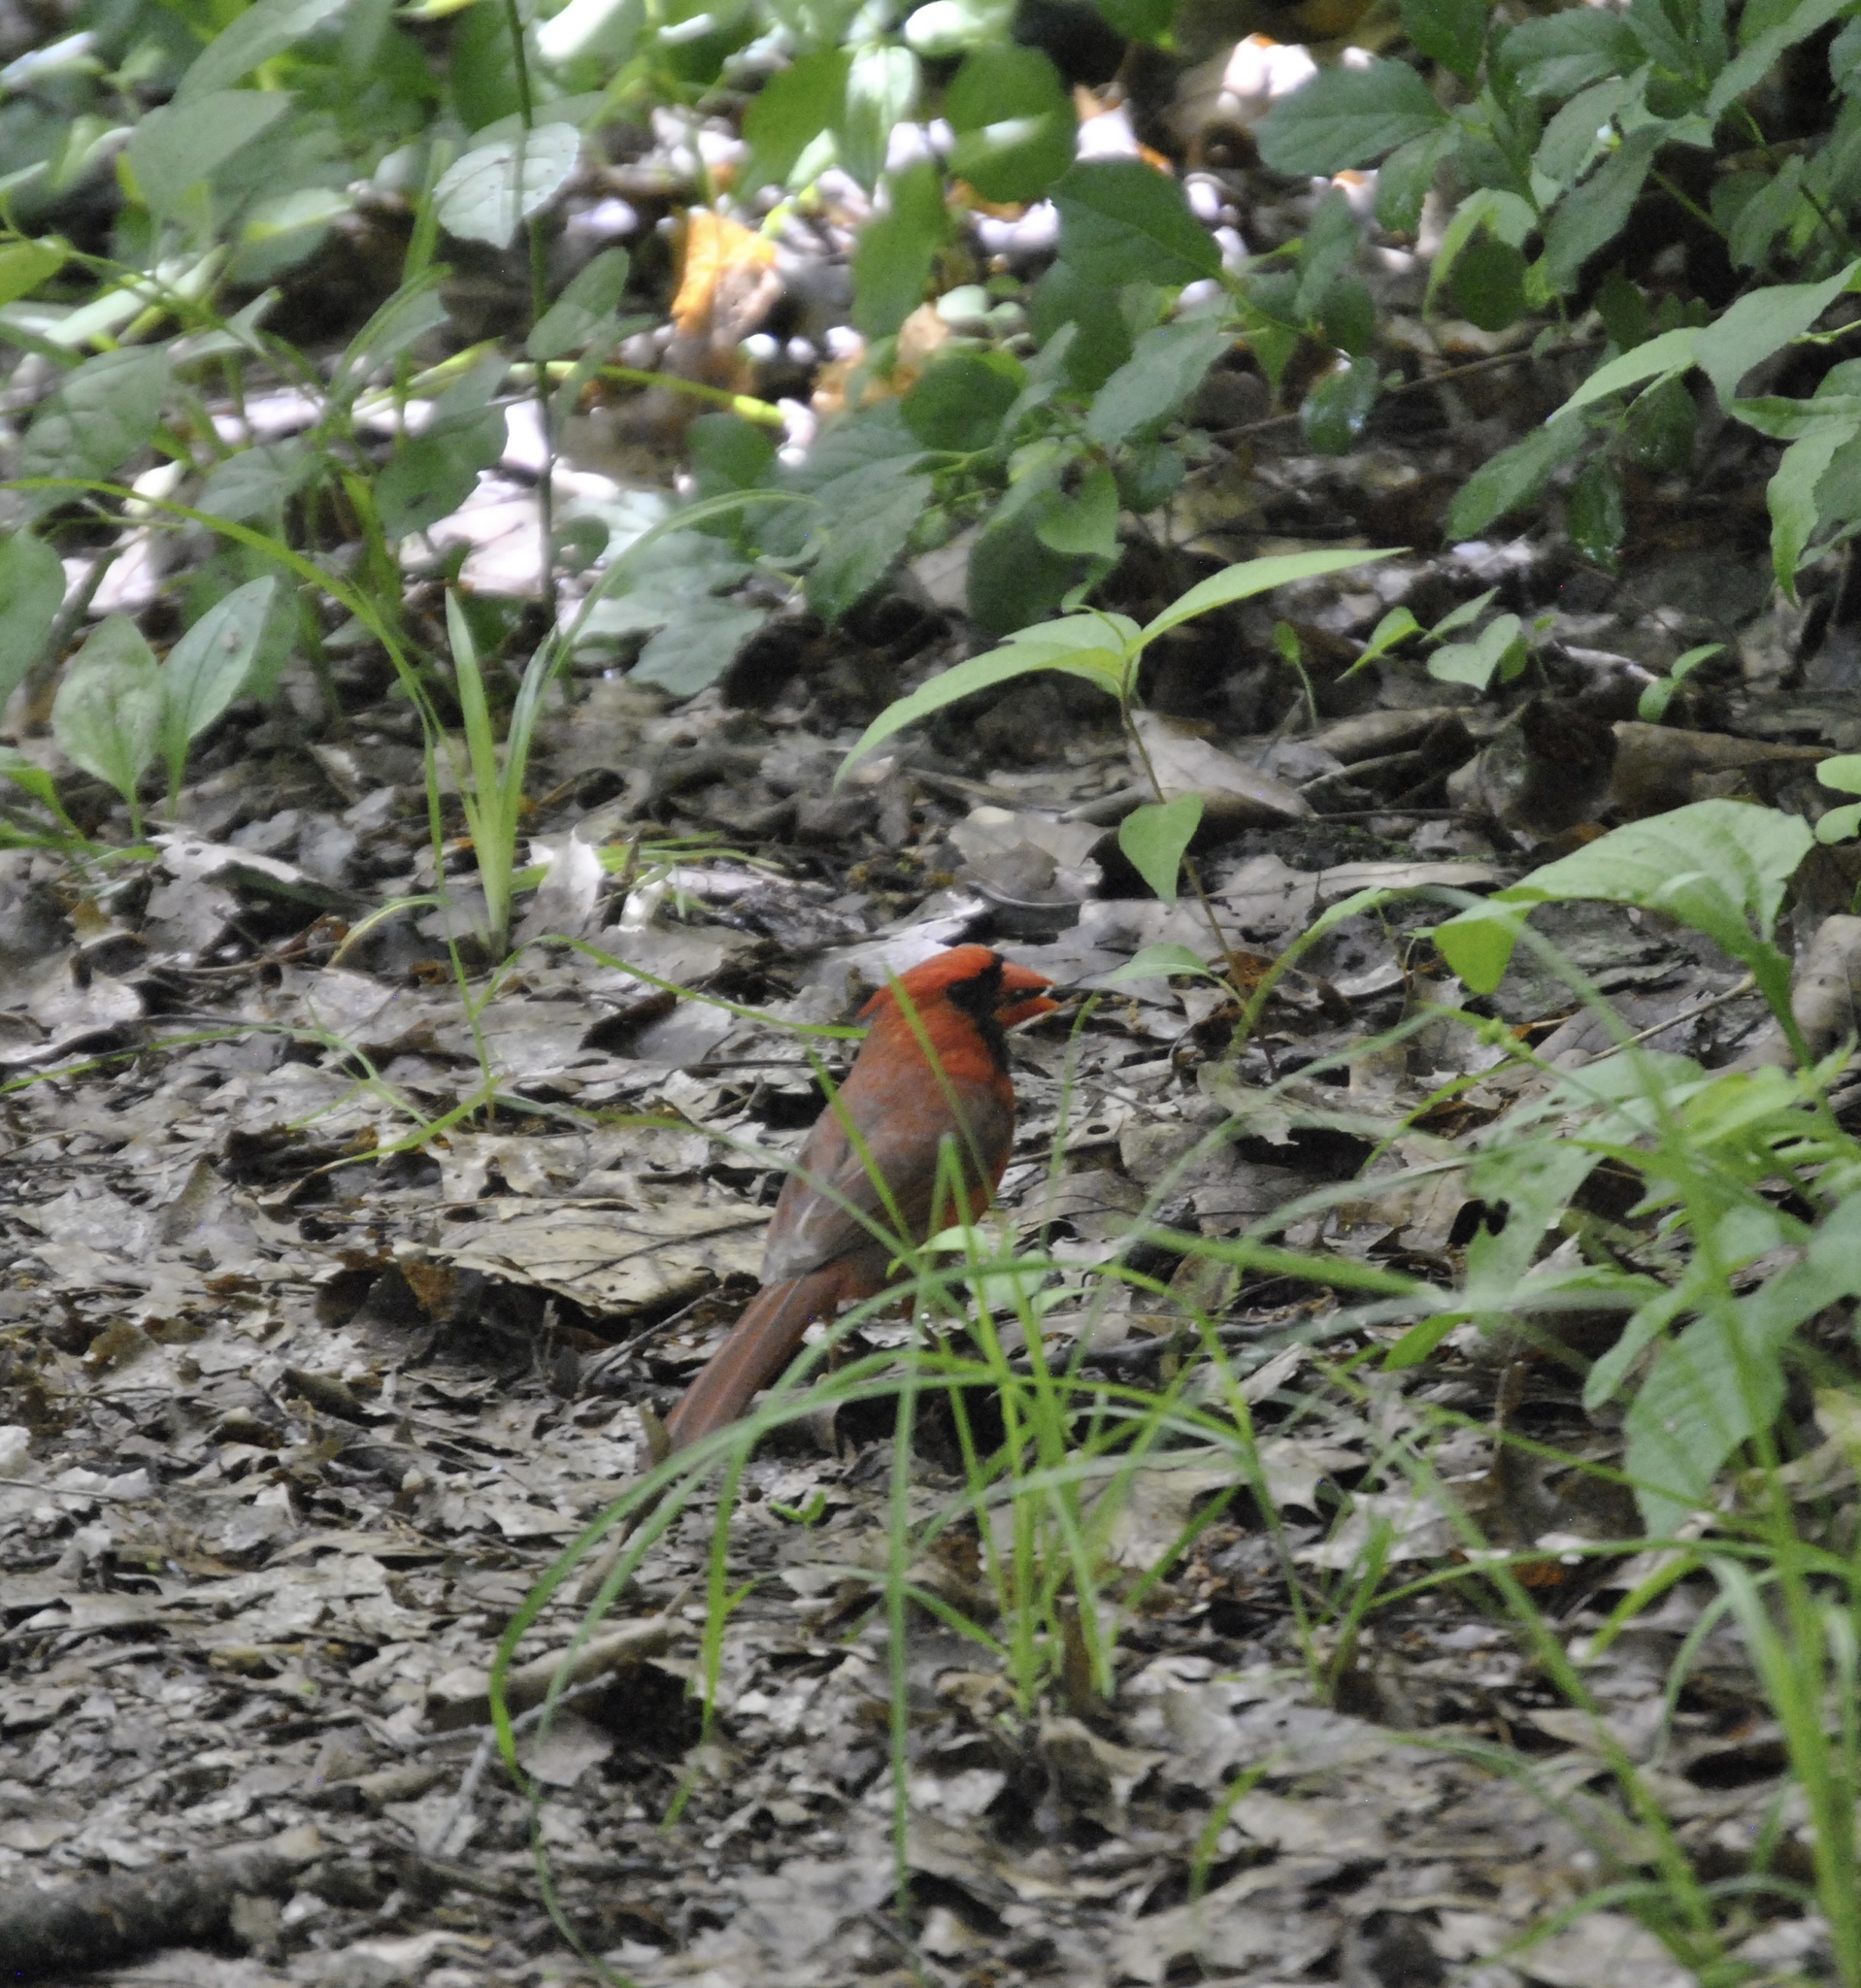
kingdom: Animalia
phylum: Chordata
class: Aves
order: Passeriformes
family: Cardinalidae
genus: Cardinalis
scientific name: Cardinalis cardinalis
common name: Northern cardinal
